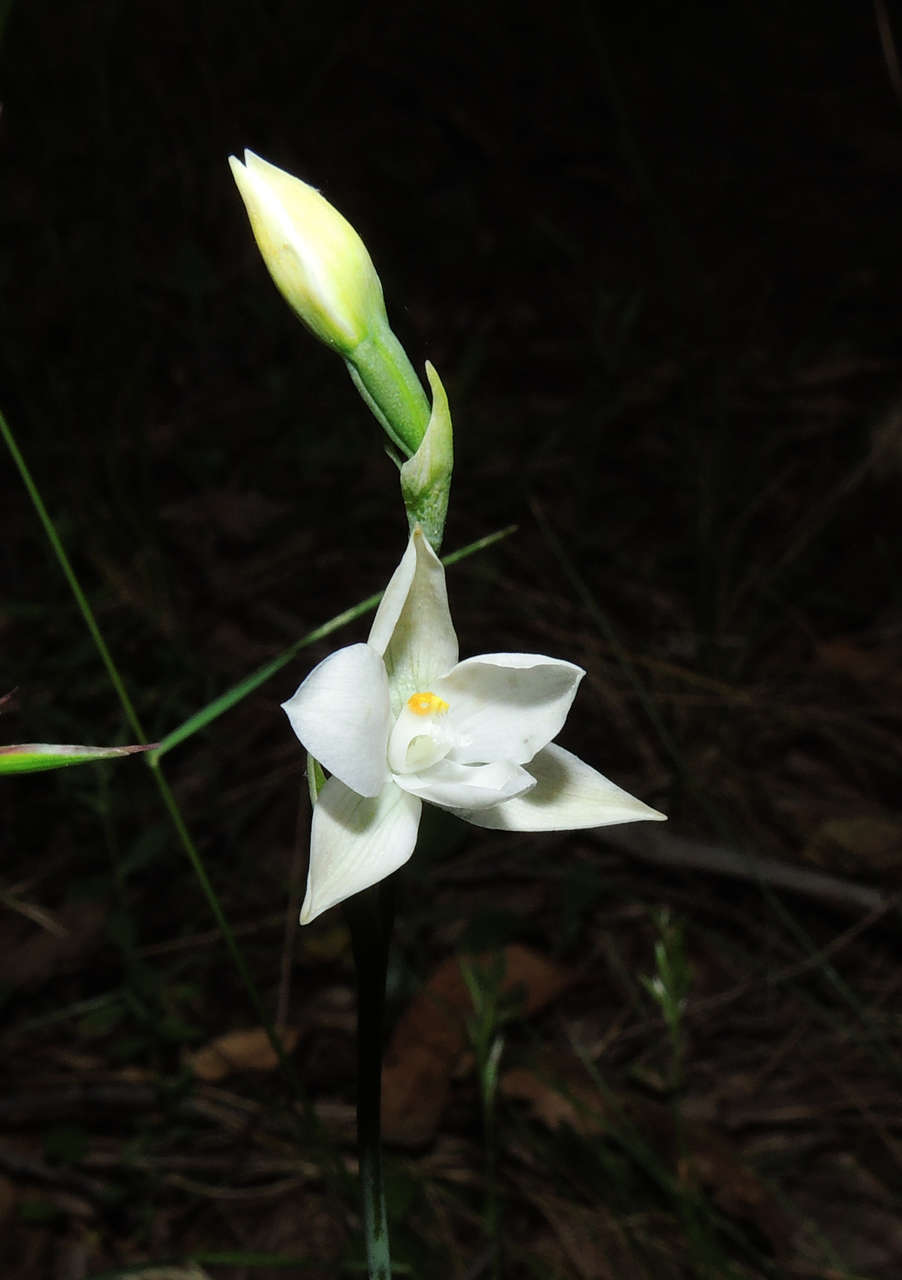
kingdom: Plantae
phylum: Tracheophyta
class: Liliopsida
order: Asparagales
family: Orchidaceae
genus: Thelymitra
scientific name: Thelymitra ixioides
